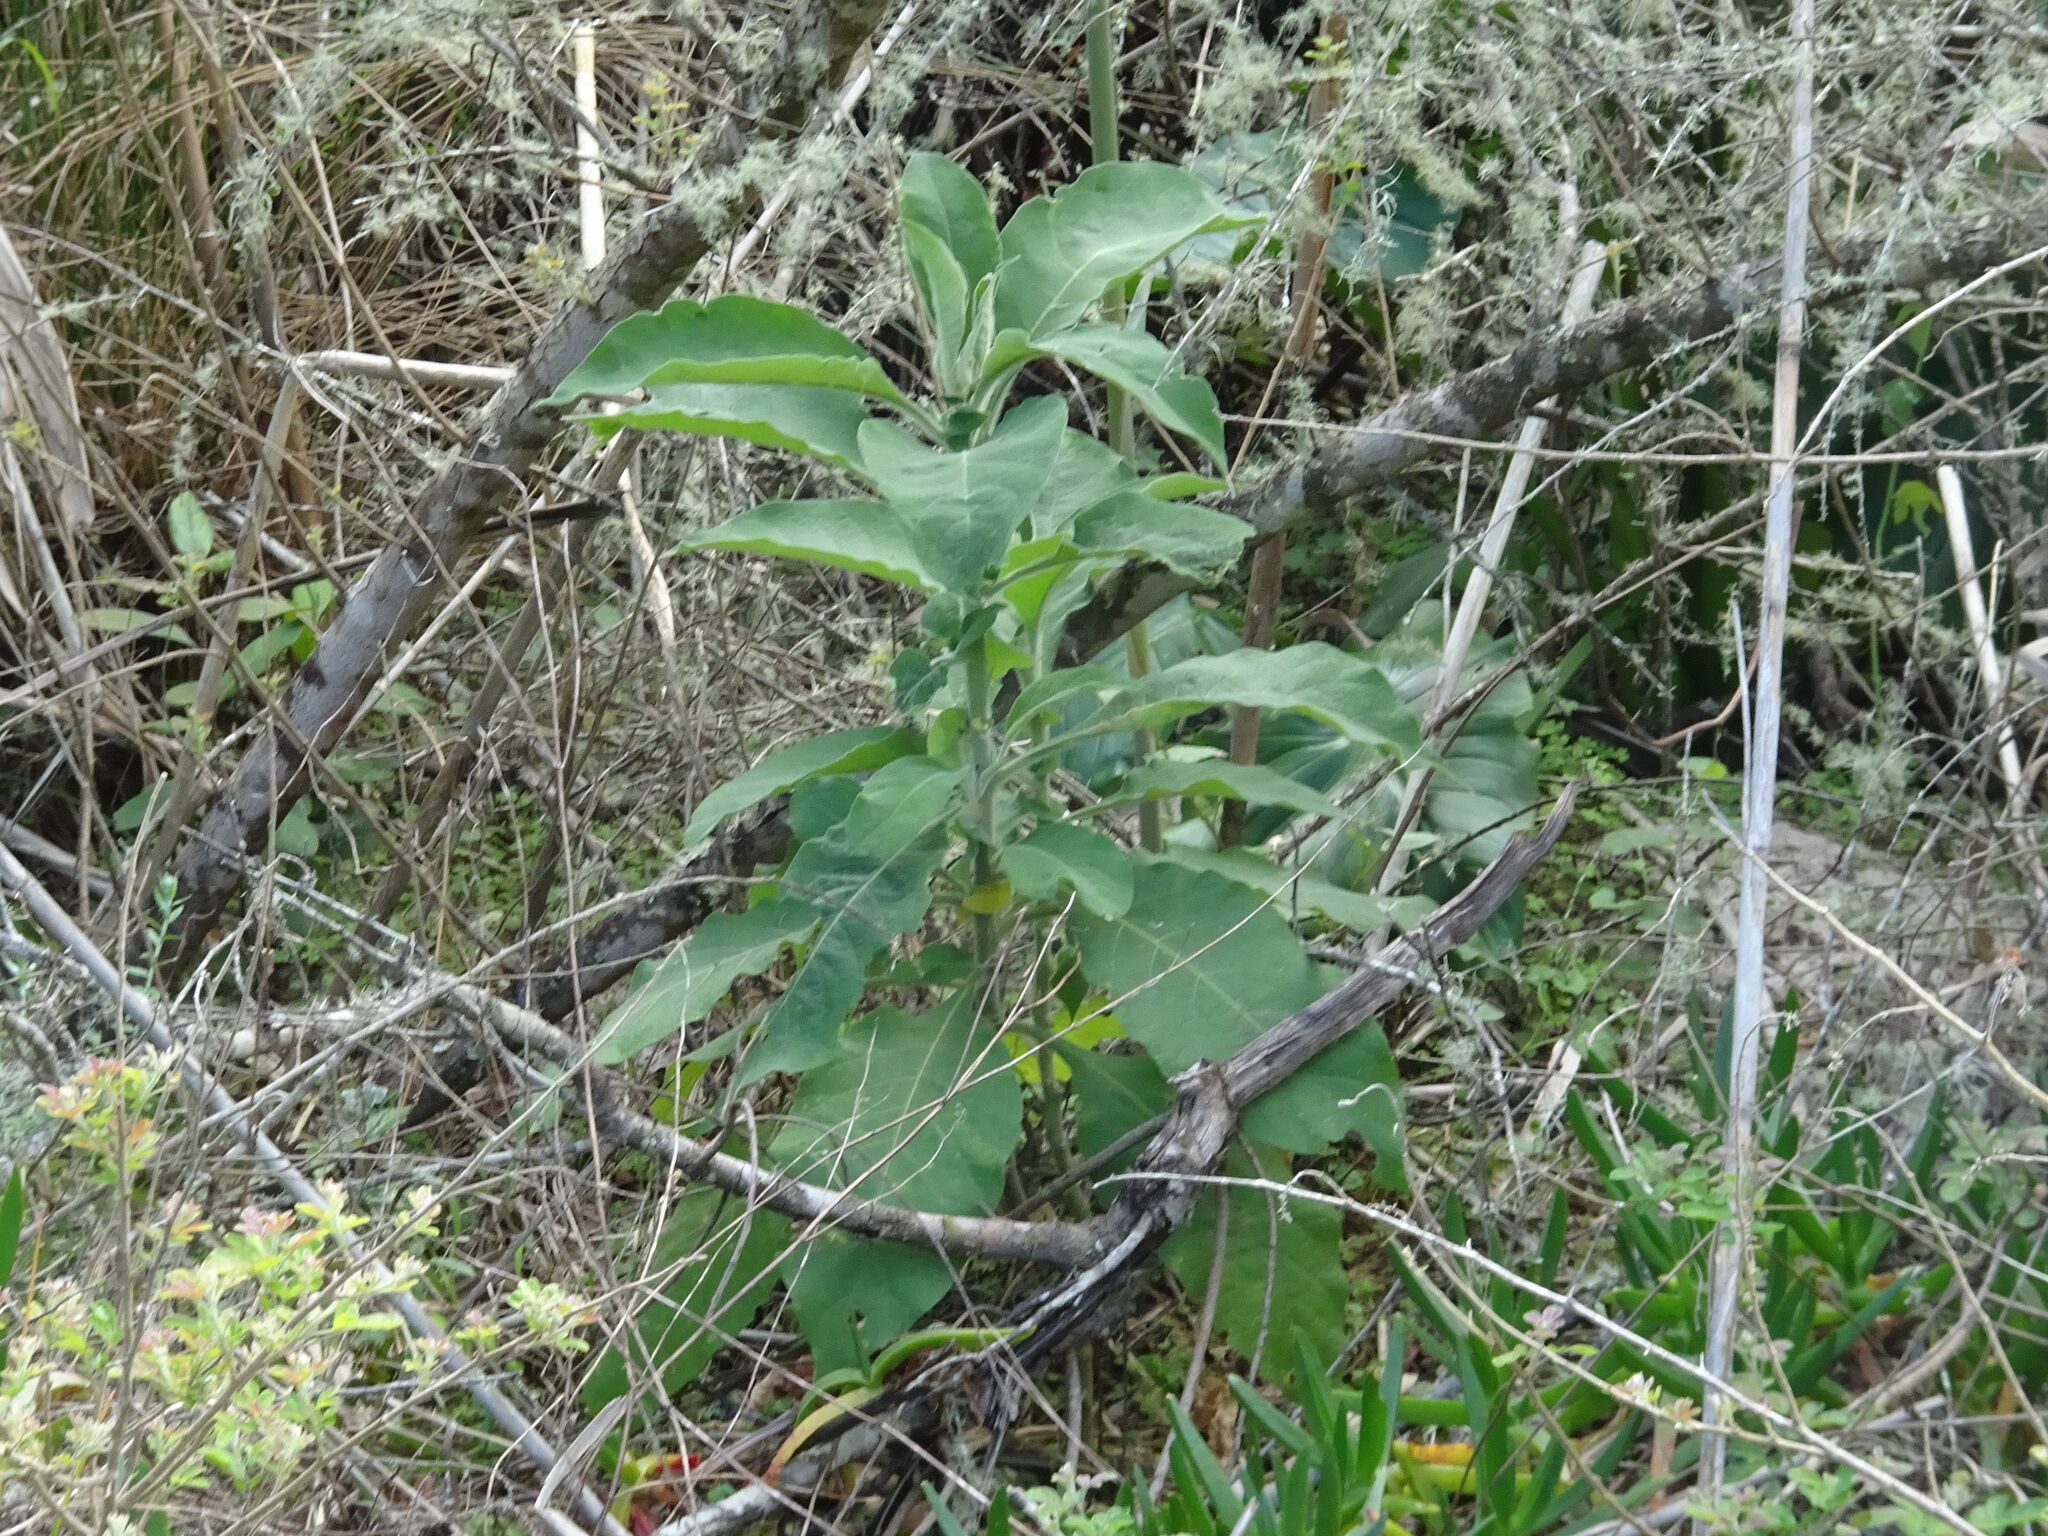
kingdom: Plantae
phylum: Tracheophyta
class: Magnoliopsida
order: Solanales
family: Solanaceae
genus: Solanum
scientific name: Solanum mauritianum
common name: Earleaf nightshade
